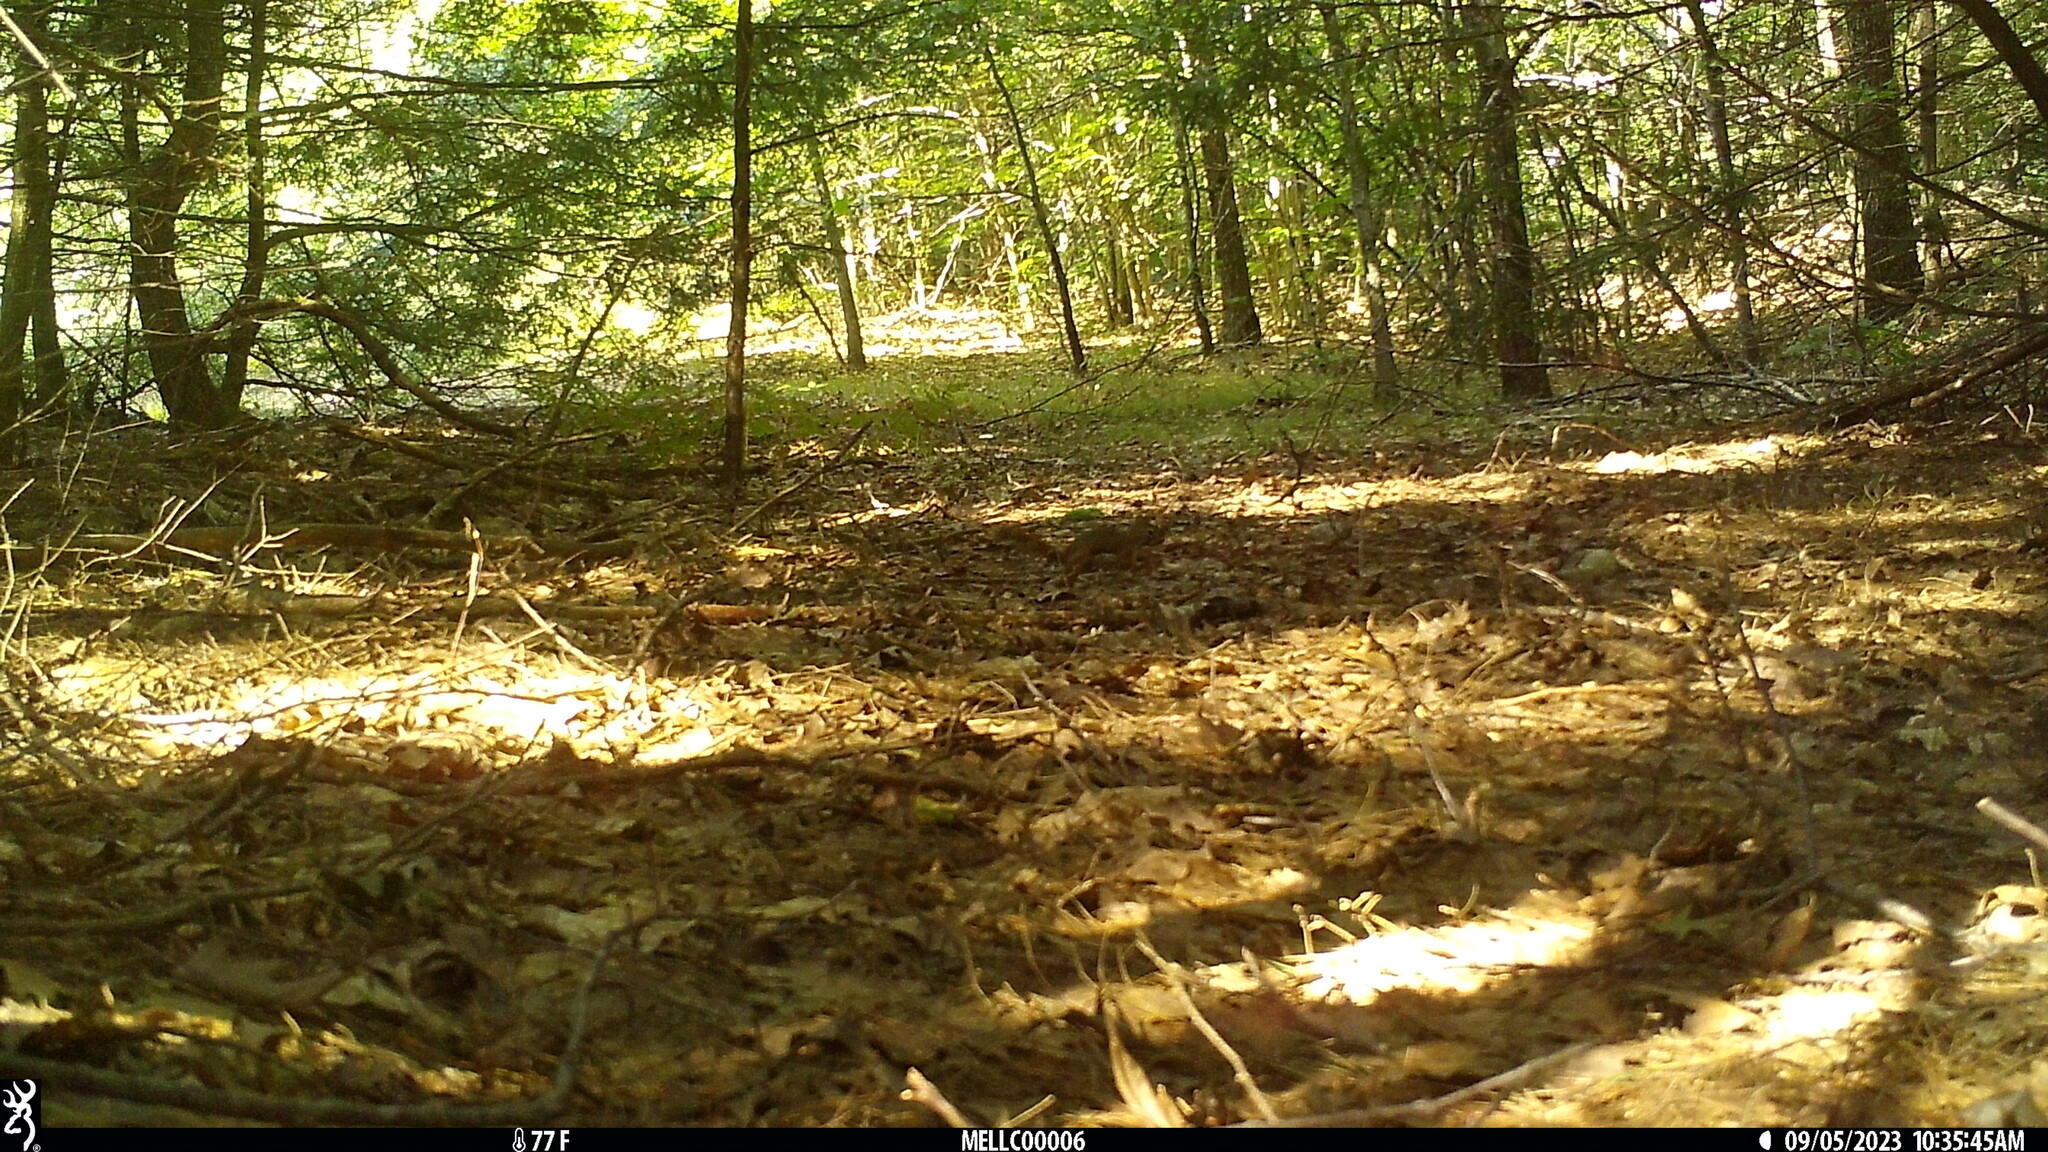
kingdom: Animalia
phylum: Chordata
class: Mammalia
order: Rodentia
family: Sciuridae
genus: Tamiasciurus
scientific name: Tamiasciurus hudsonicus
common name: Red squirrel
